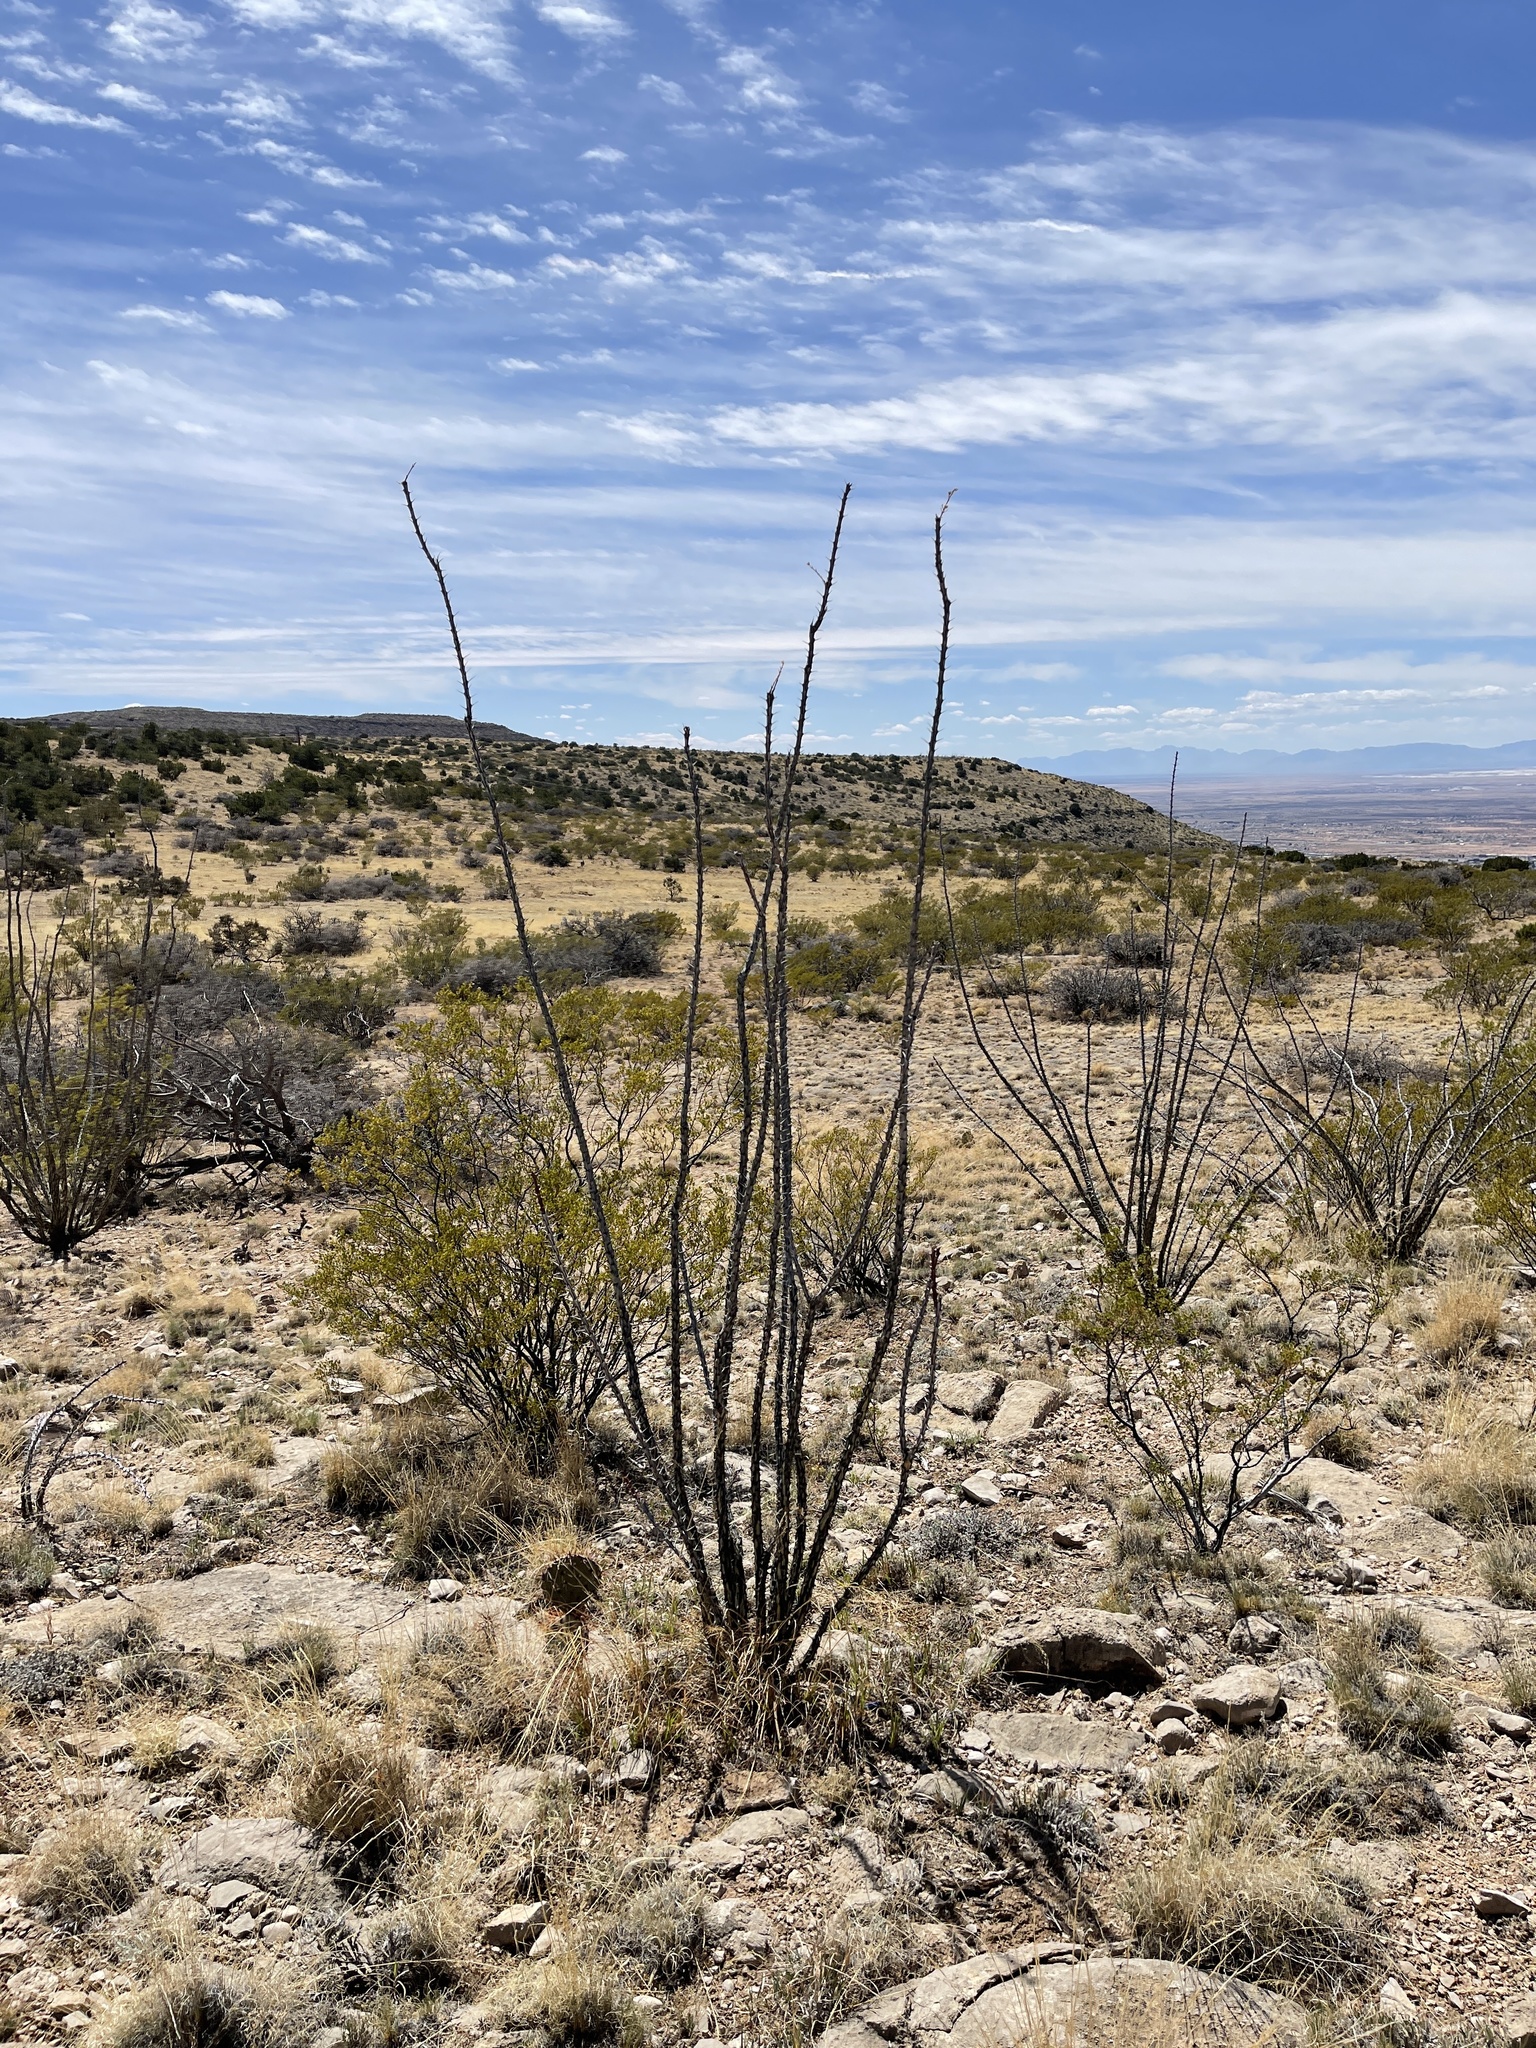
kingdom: Plantae
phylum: Tracheophyta
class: Magnoliopsida
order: Ericales
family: Fouquieriaceae
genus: Fouquieria
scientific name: Fouquieria splendens
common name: Vine-cactus
